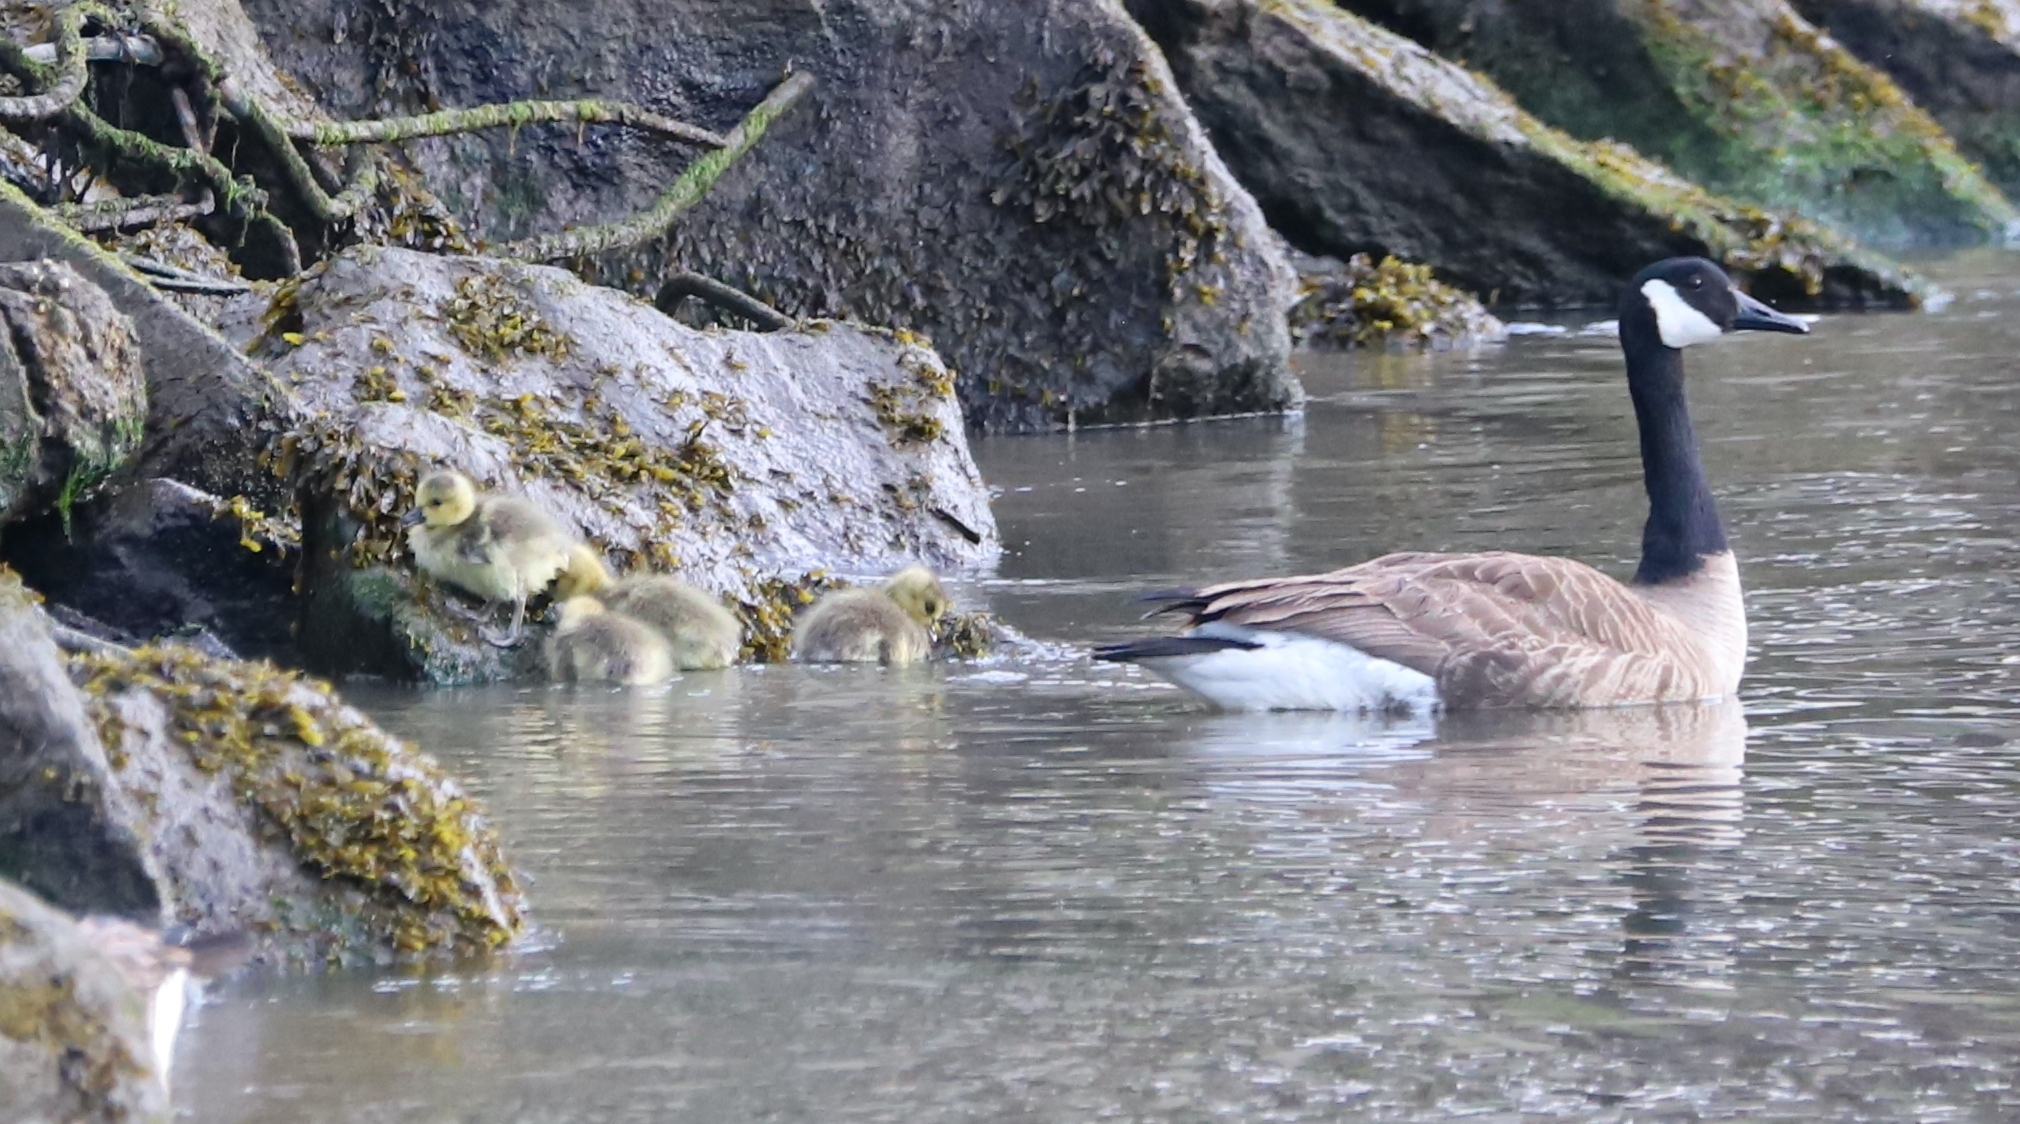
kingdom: Animalia
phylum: Chordata
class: Aves
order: Anseriformes
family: Anatidae
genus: Branta
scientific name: Branta canadensis
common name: Canada goose
